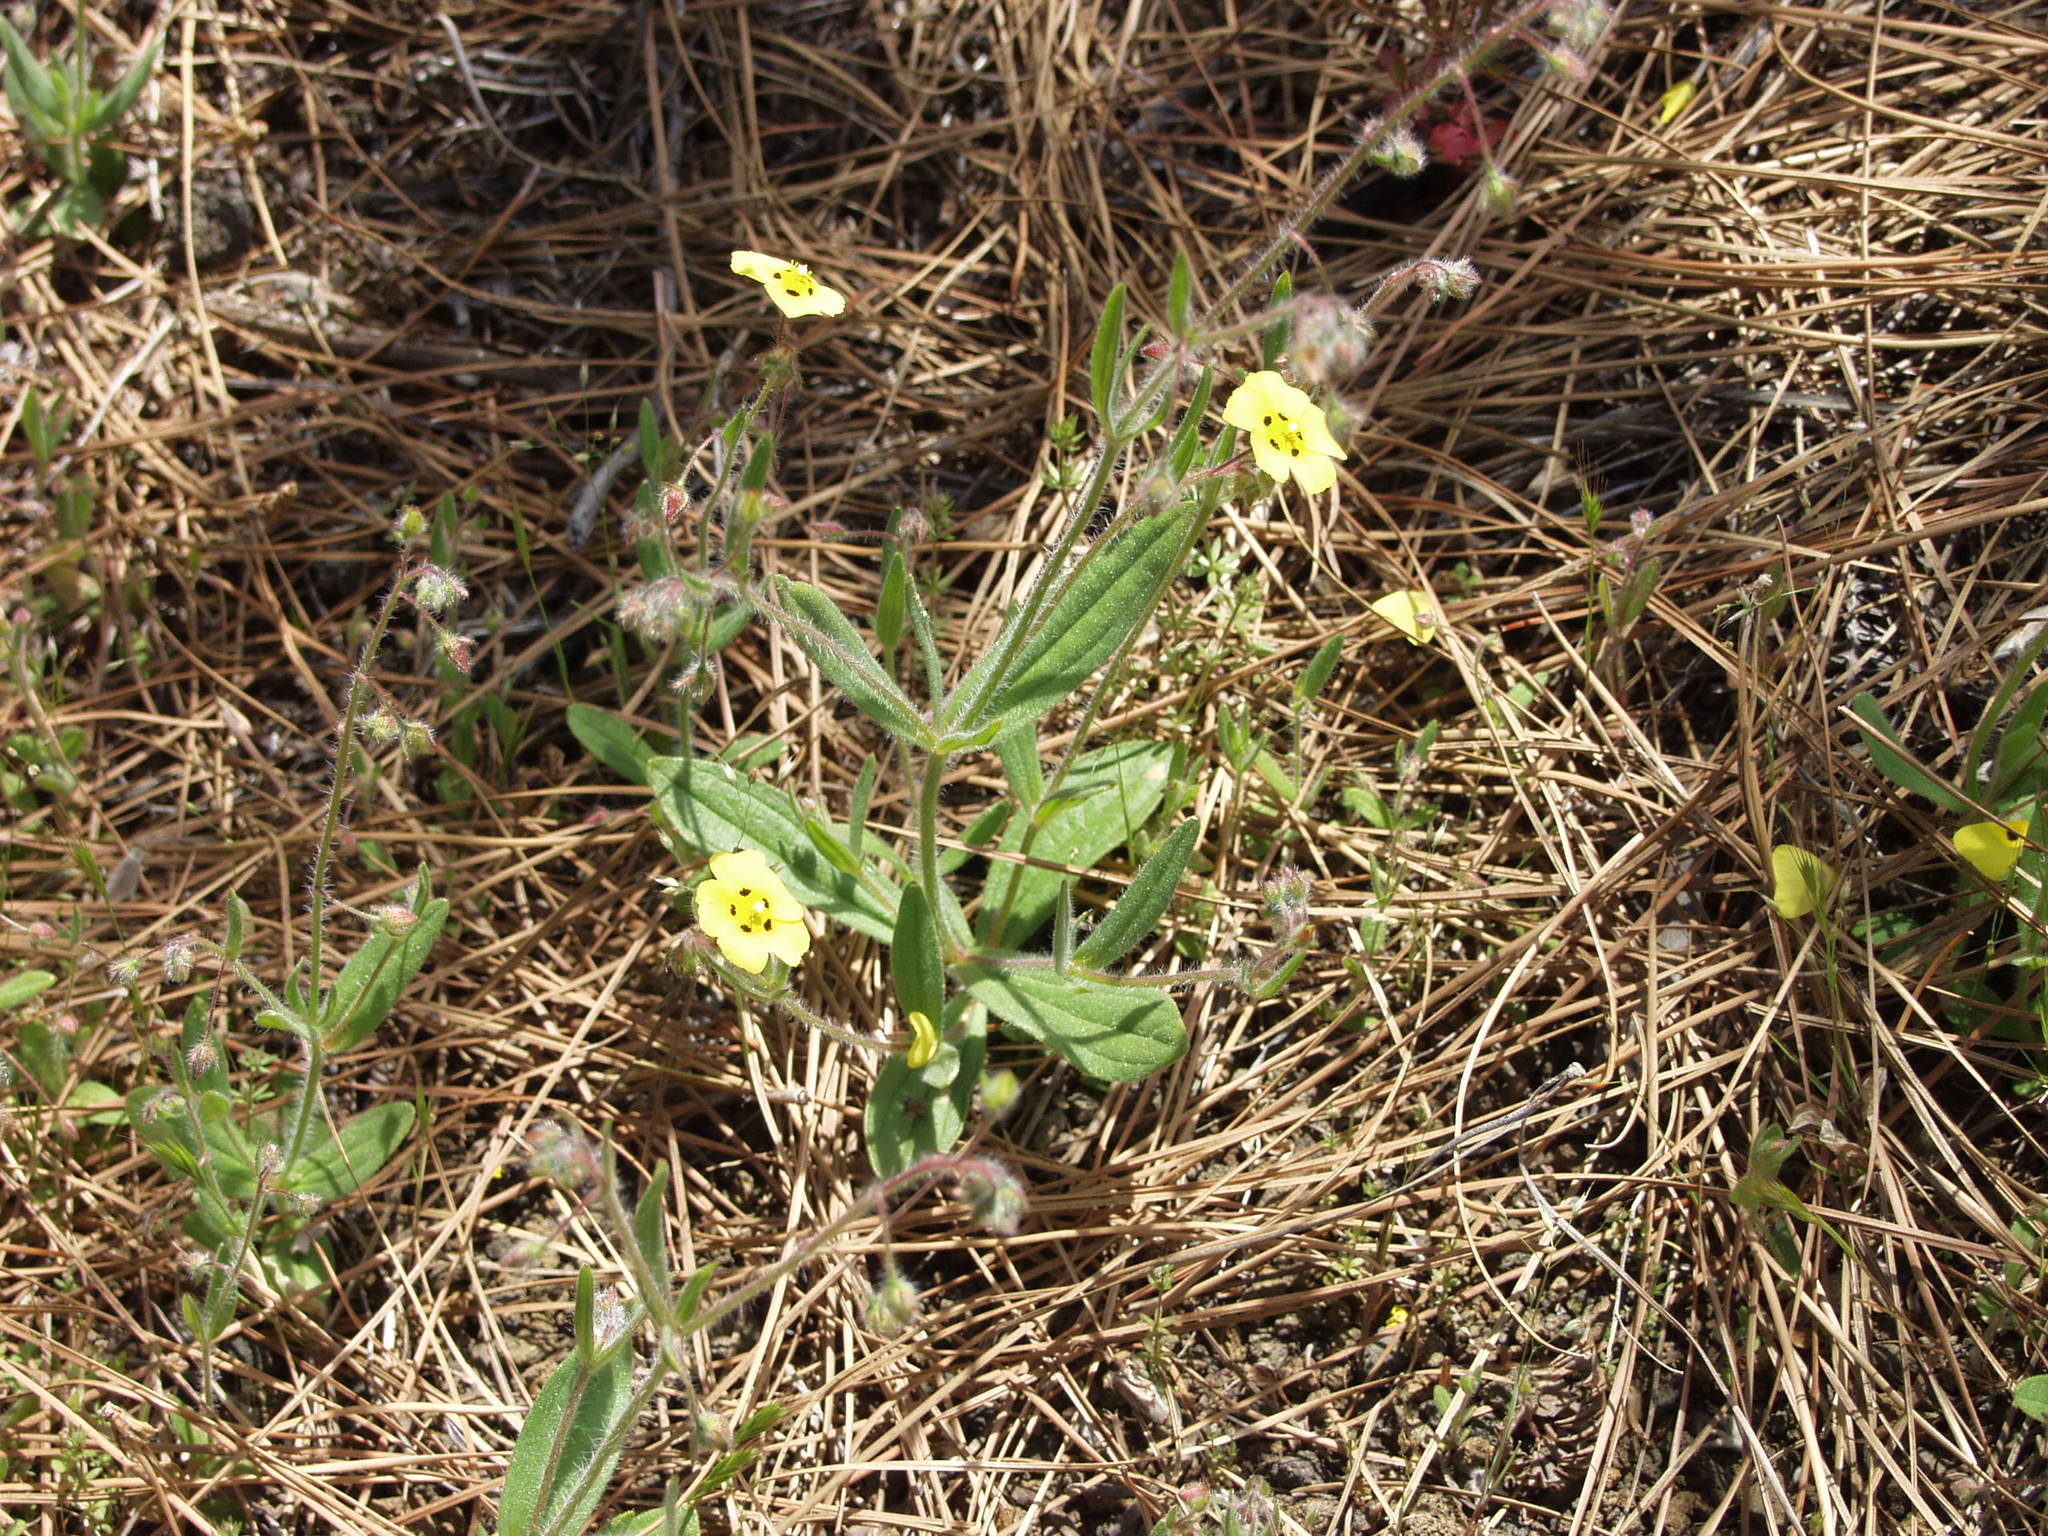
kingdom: Plantae
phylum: Tracheophyta
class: Magnoliopsida
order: Malvales
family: Cistaceae
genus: Tuberaria
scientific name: Tuberaria guttata
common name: Spotted rock-rose
